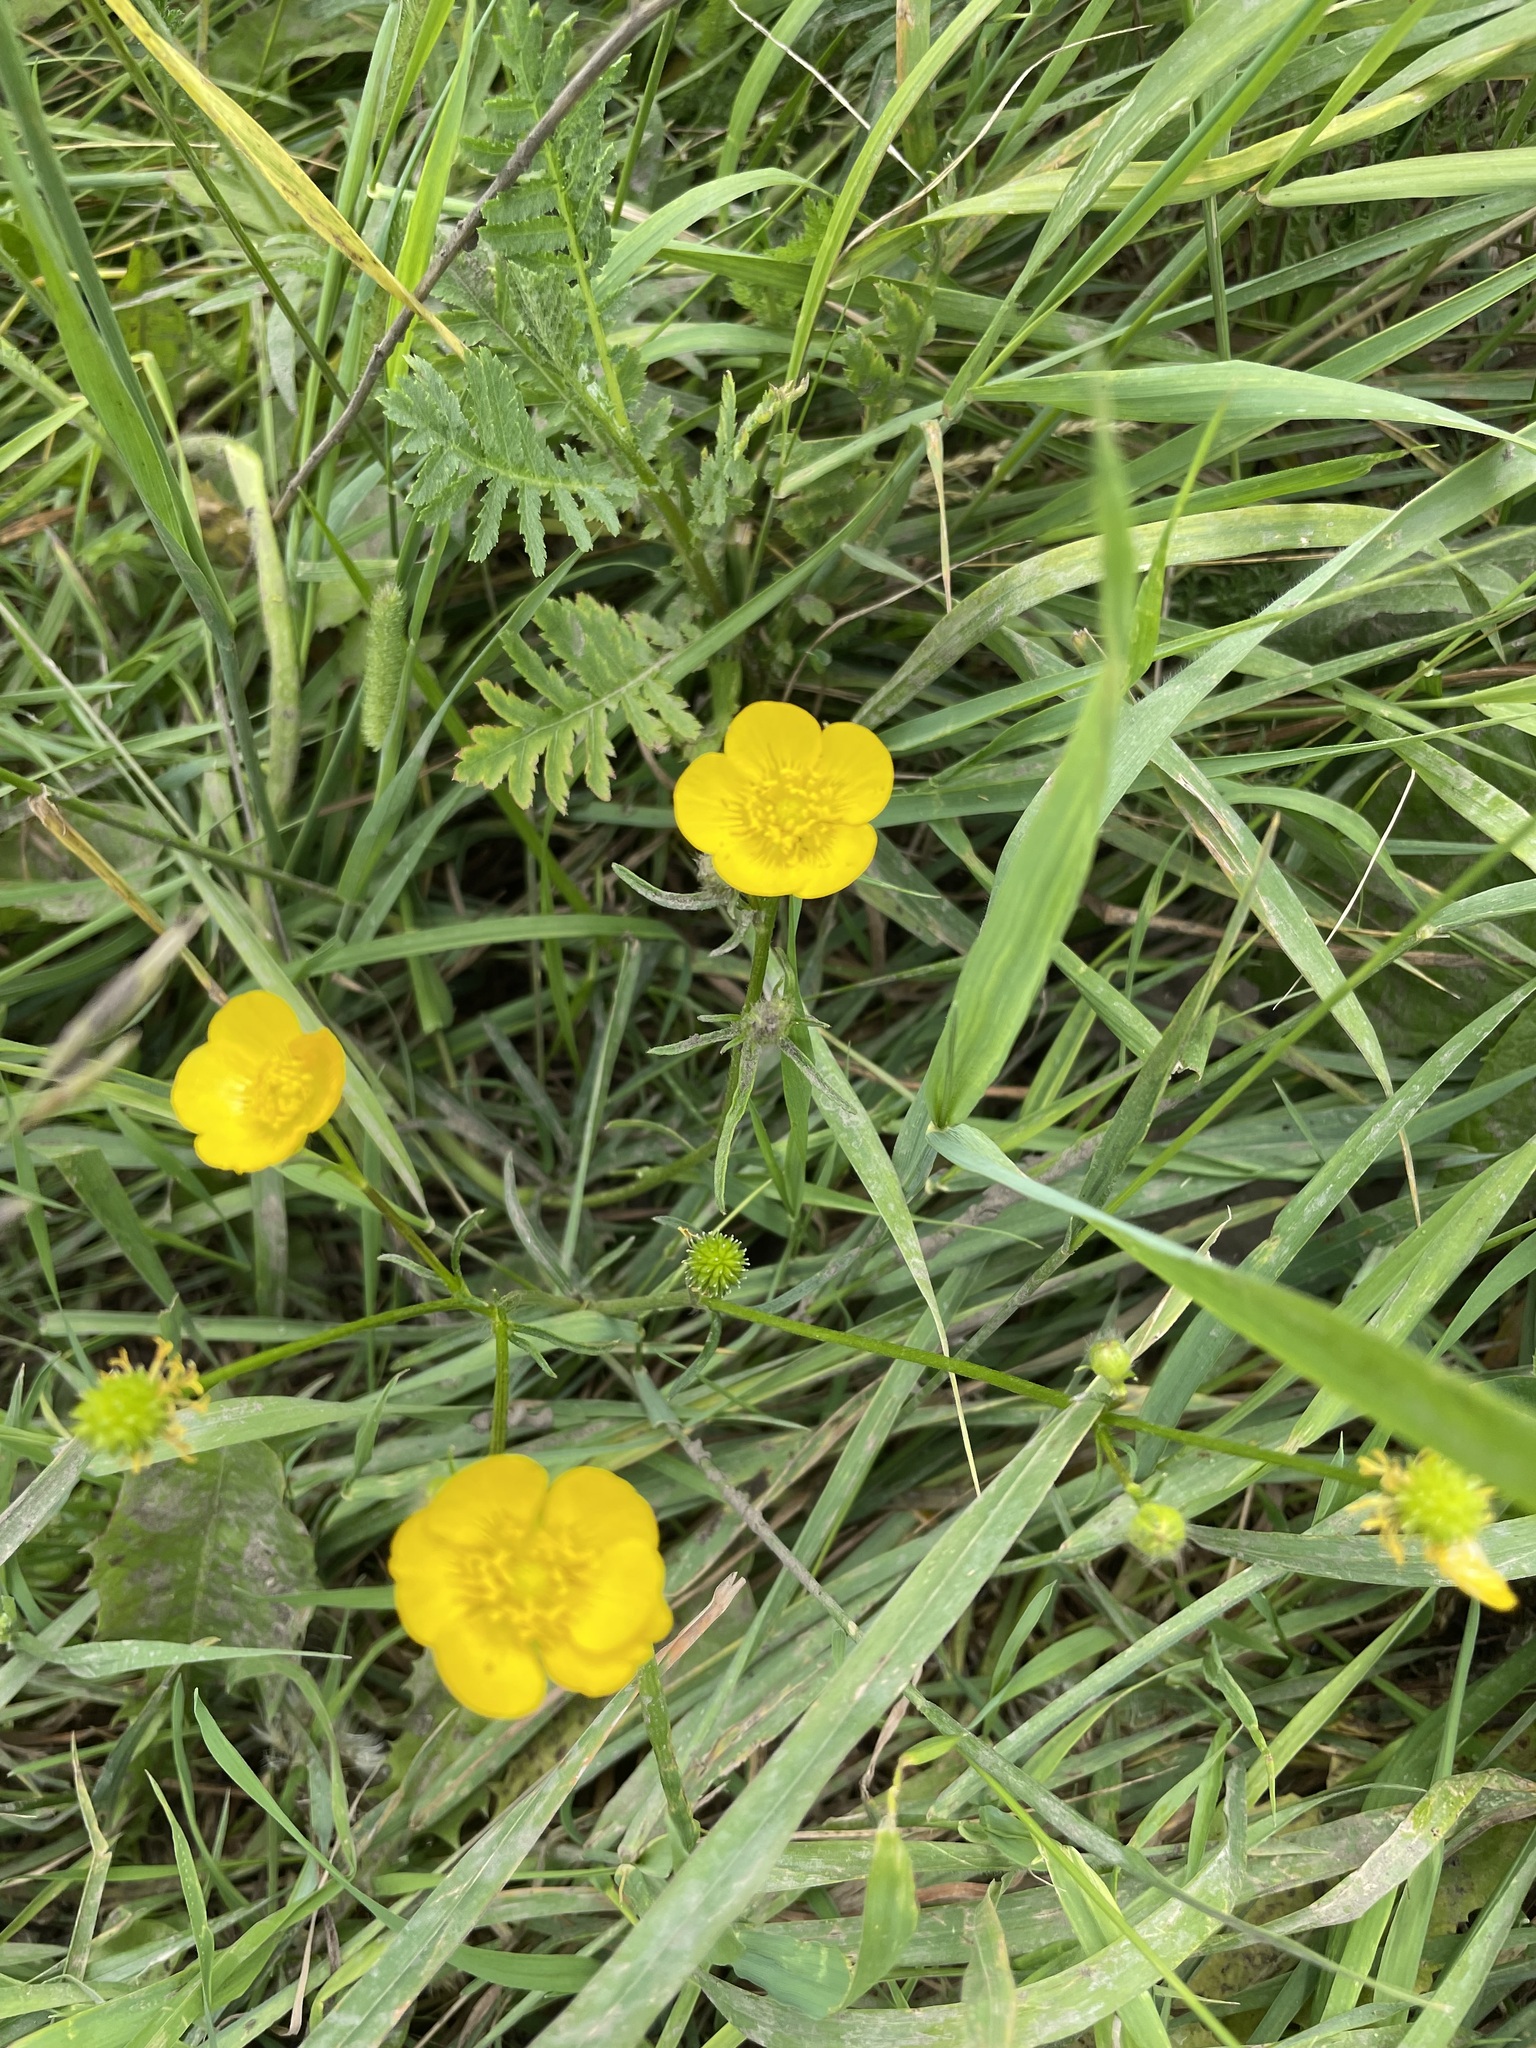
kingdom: Plantae
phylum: Tracheophyta
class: Magnoliopsida
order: Ranunculales
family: Ranunculaceae
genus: Ranunculus
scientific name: Ranunculus polyanthemos
